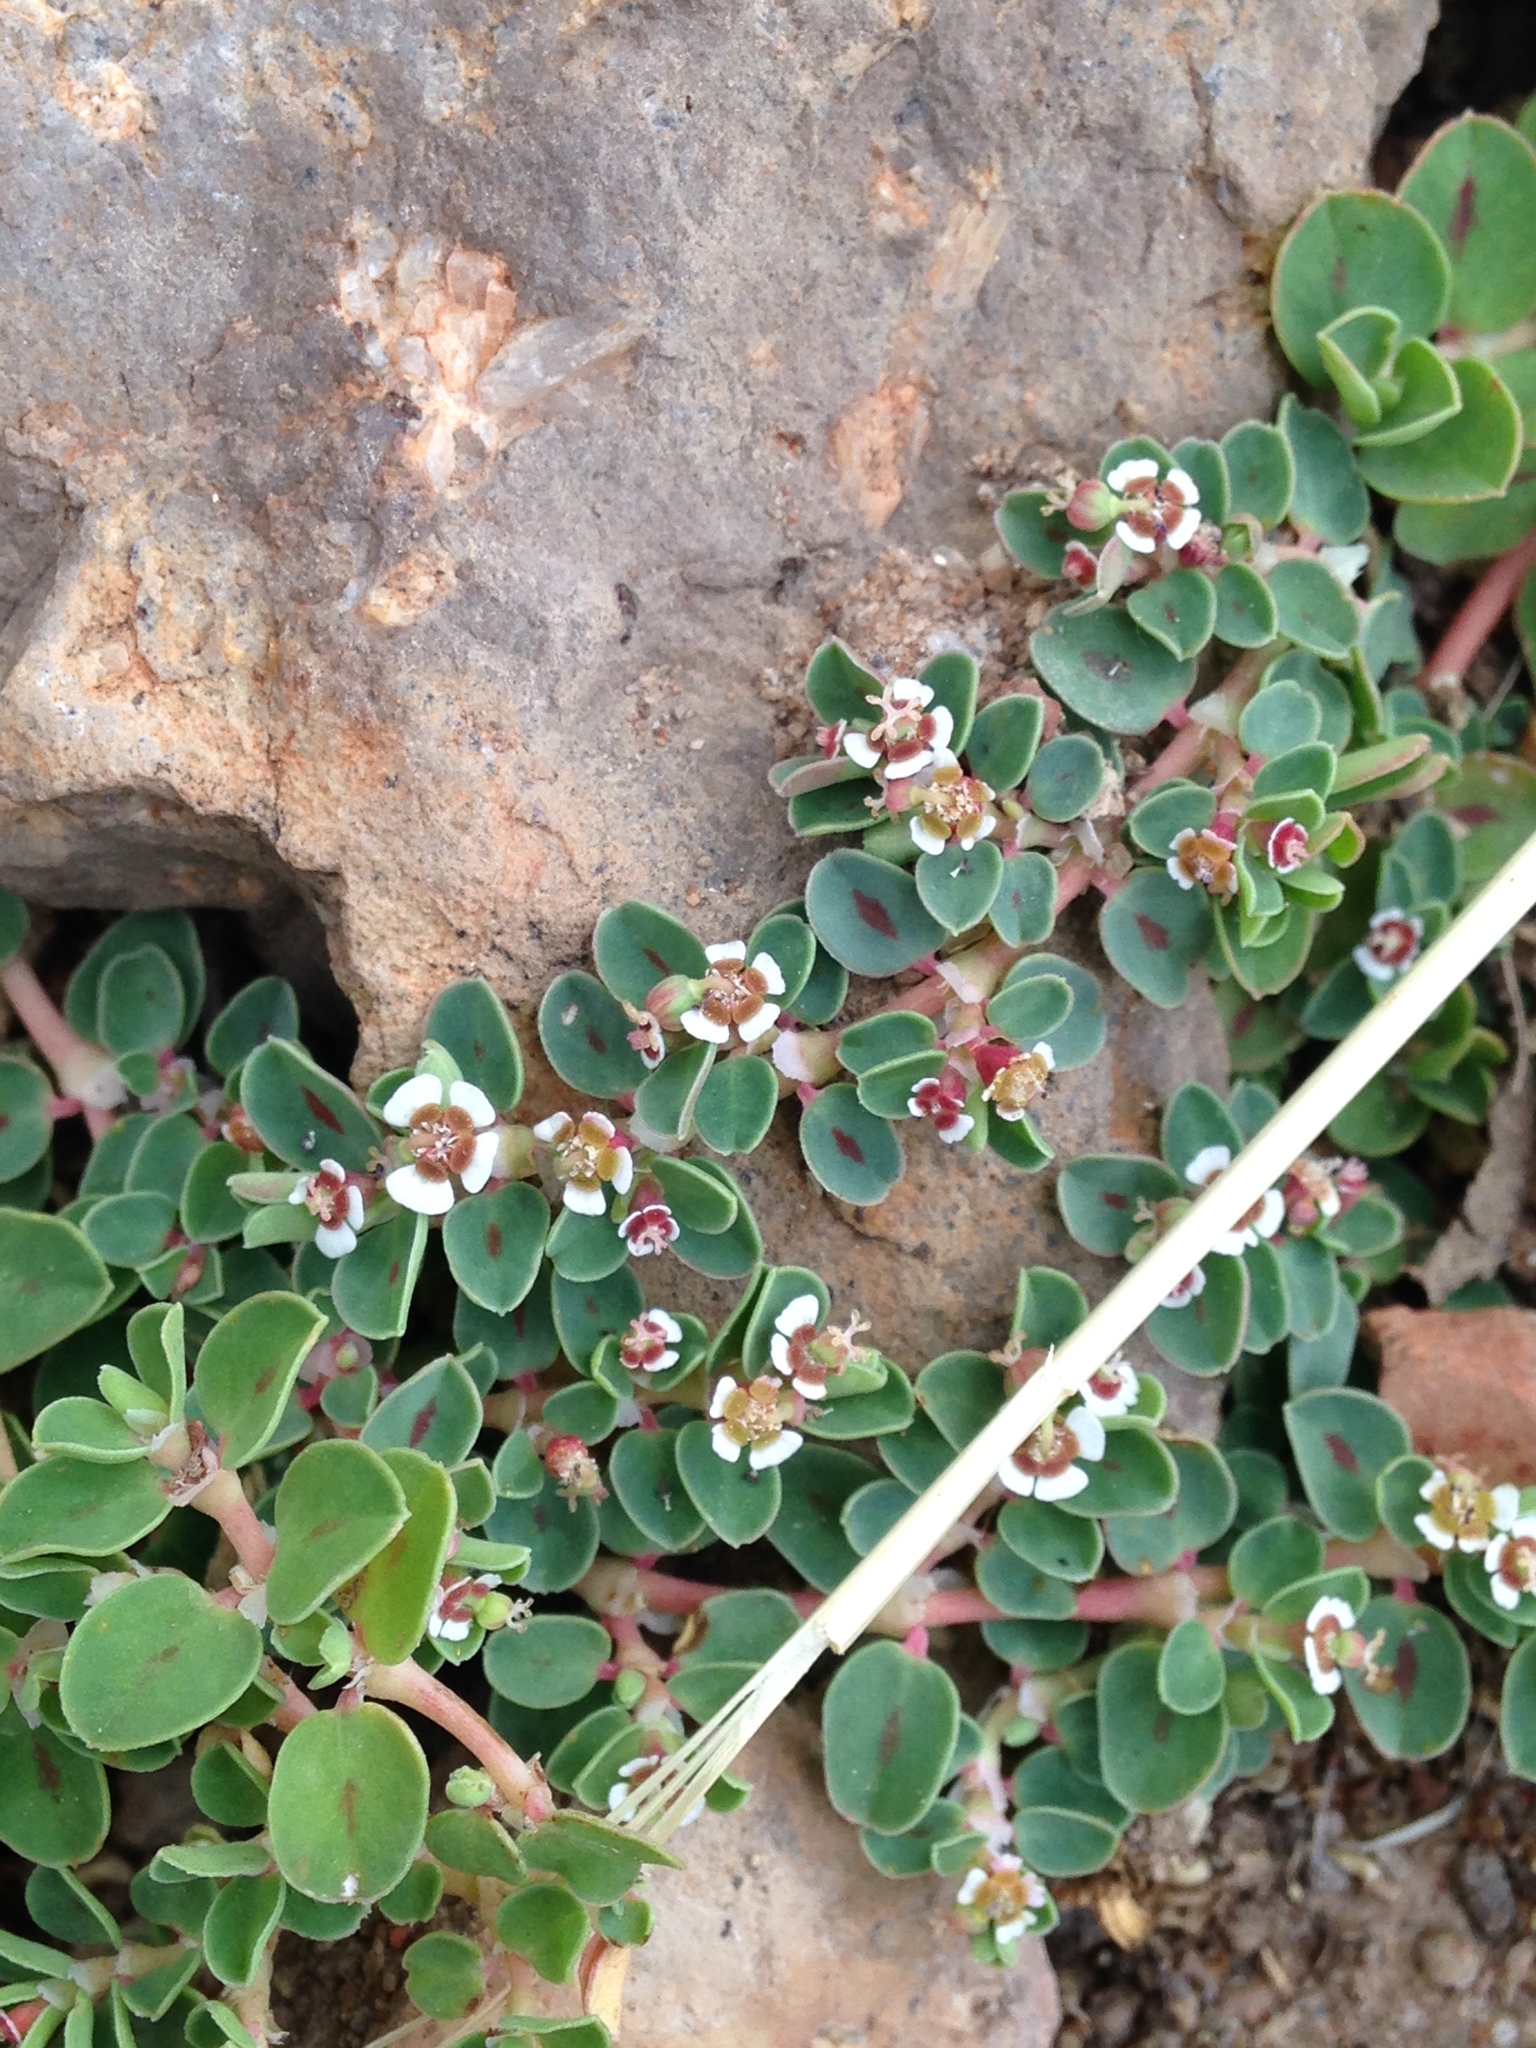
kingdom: Plantae
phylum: Tracheophyta
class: Magnoliopsida
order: Malpighiales
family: Euphorbiaceae
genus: Euphorbia
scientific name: Euphorbia albomarginata
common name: Whitemargin sandmat
